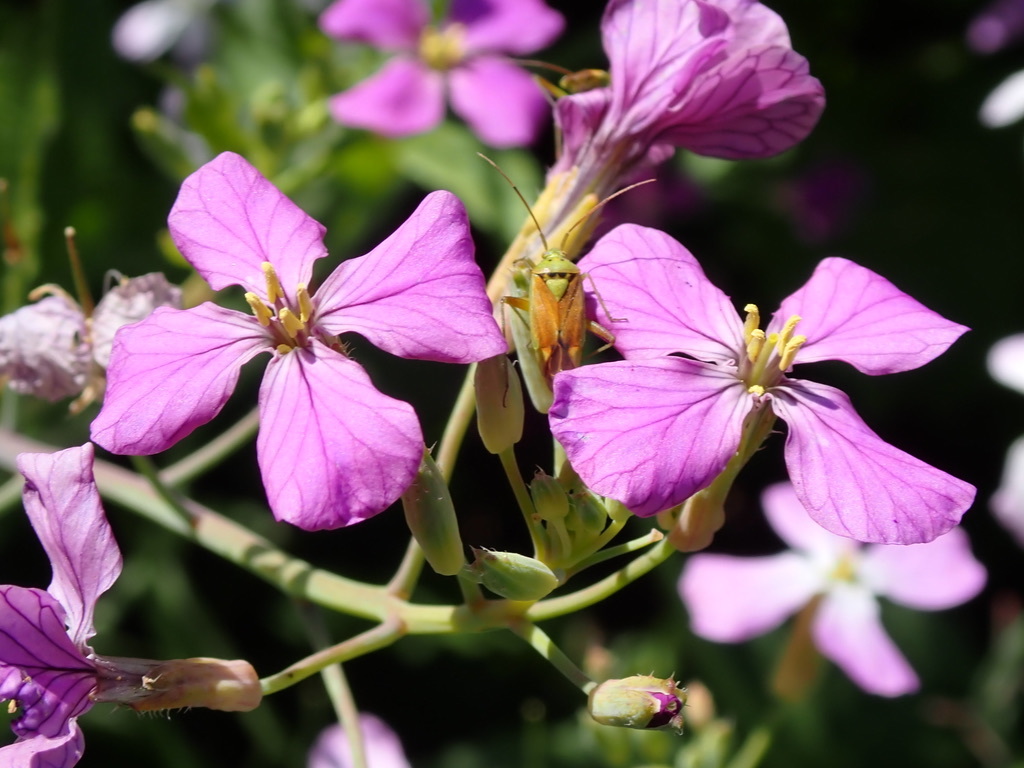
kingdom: Animalia
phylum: Arthropoda
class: Insecta
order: Hemiptera
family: Miridae
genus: Closterotomus
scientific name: Closterotomus norvegicus
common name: Plant bug
